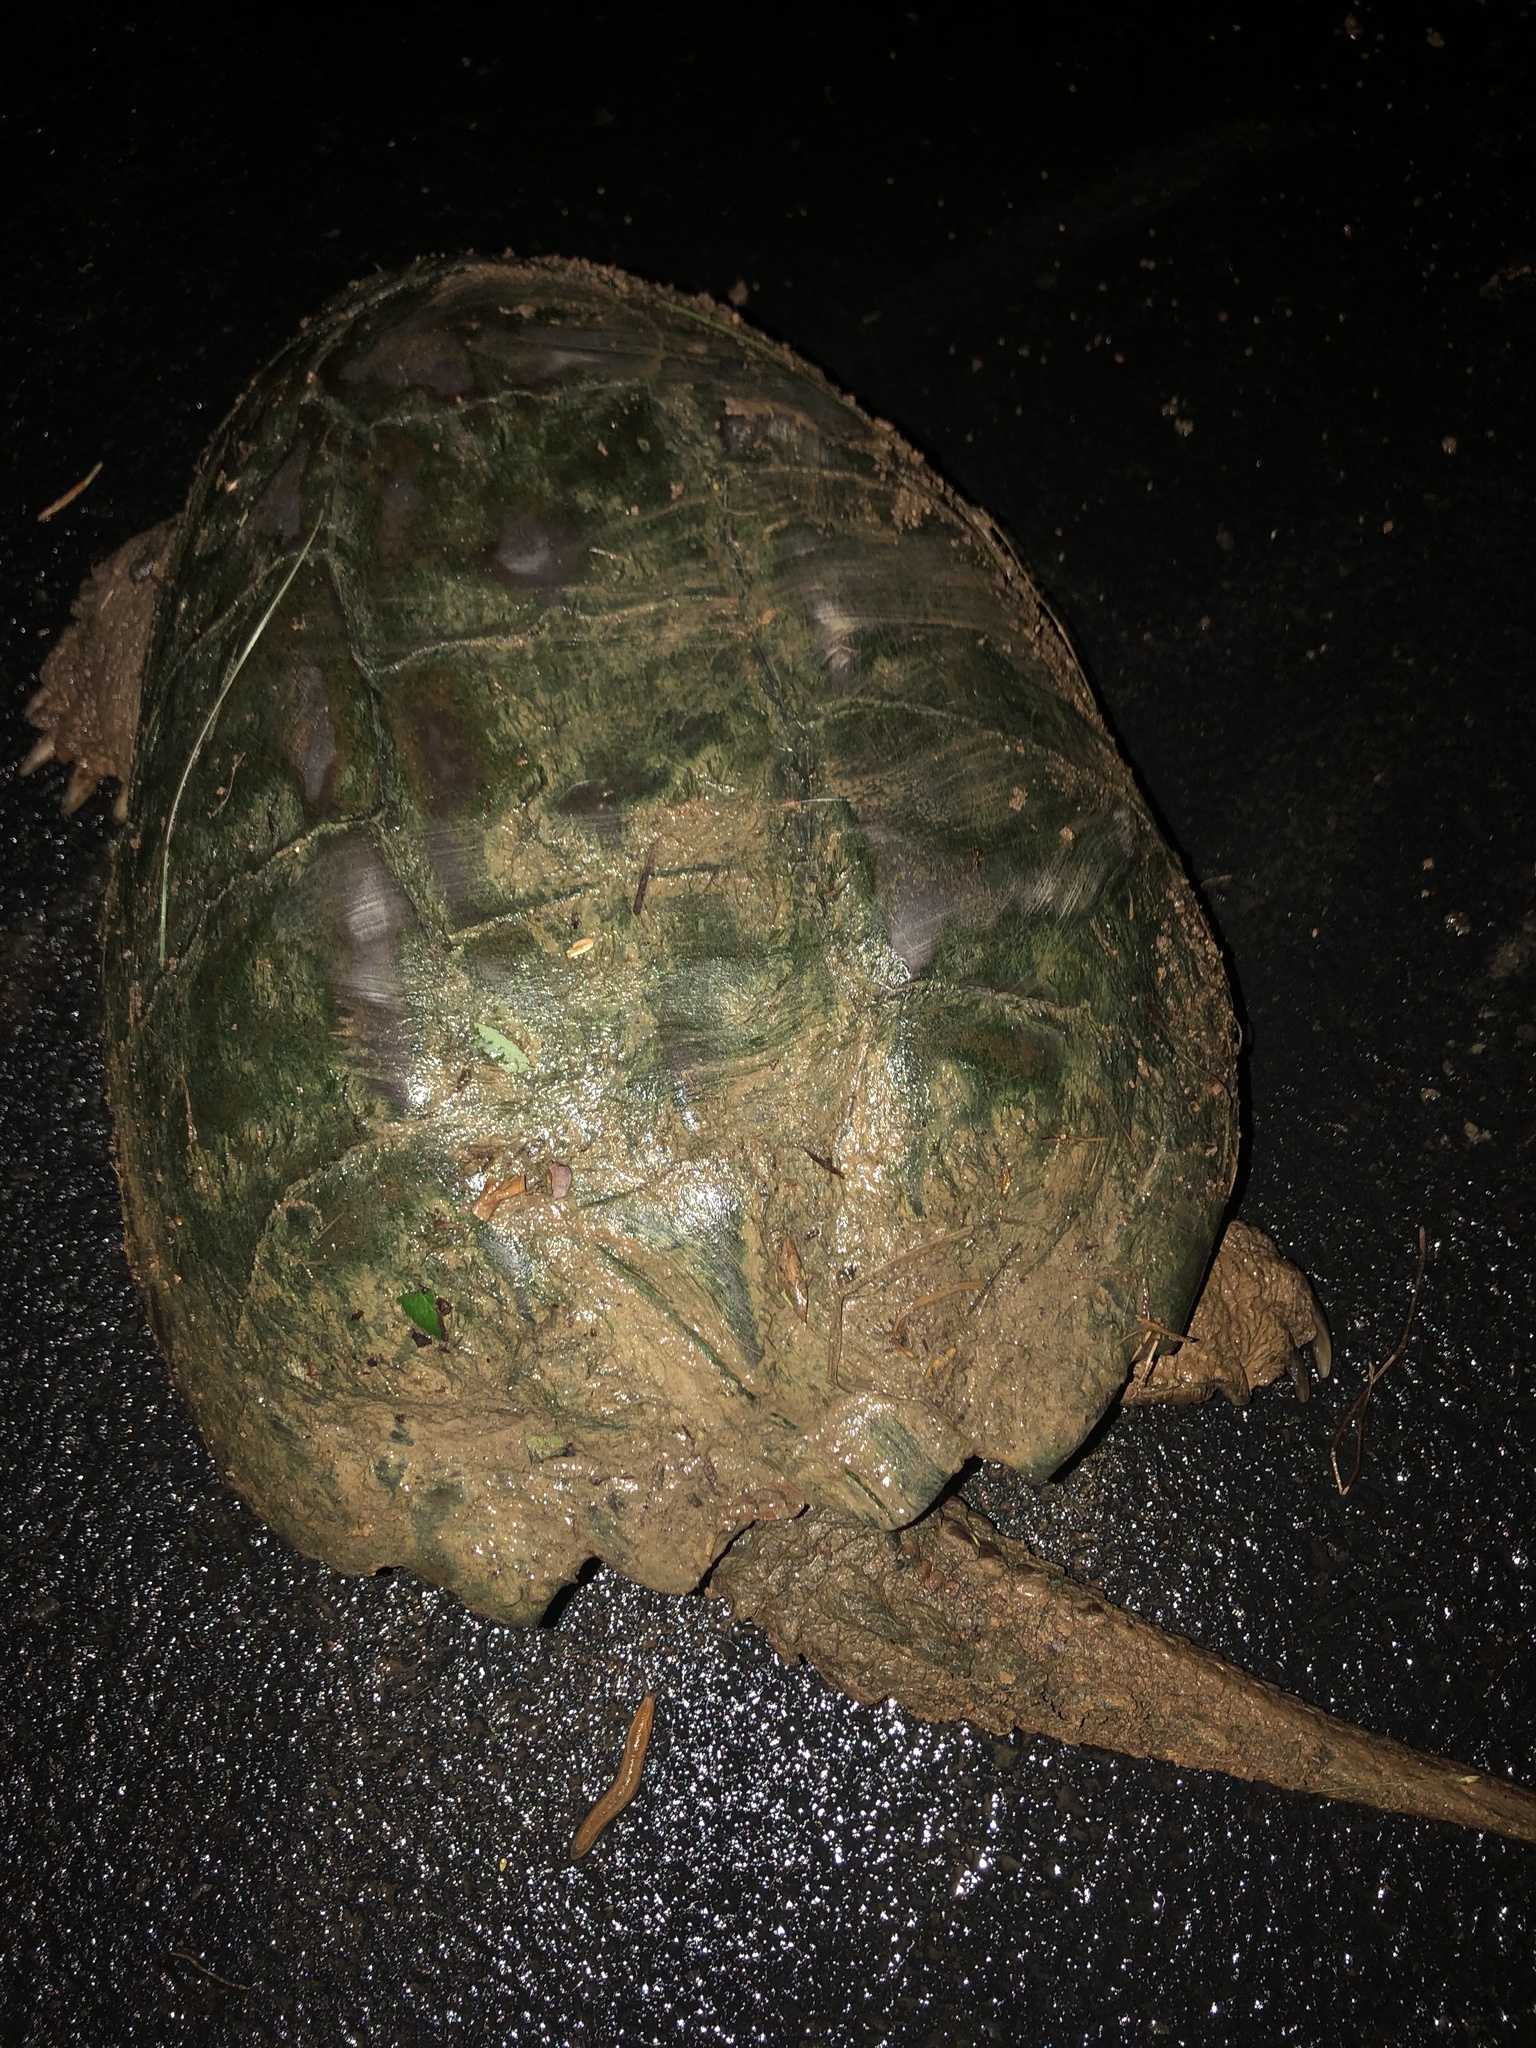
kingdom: Animalia
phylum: Chordata
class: Testudines
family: Chelydridae
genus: Chelydra
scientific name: Chelydra serpentina
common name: Common snapping turtle
